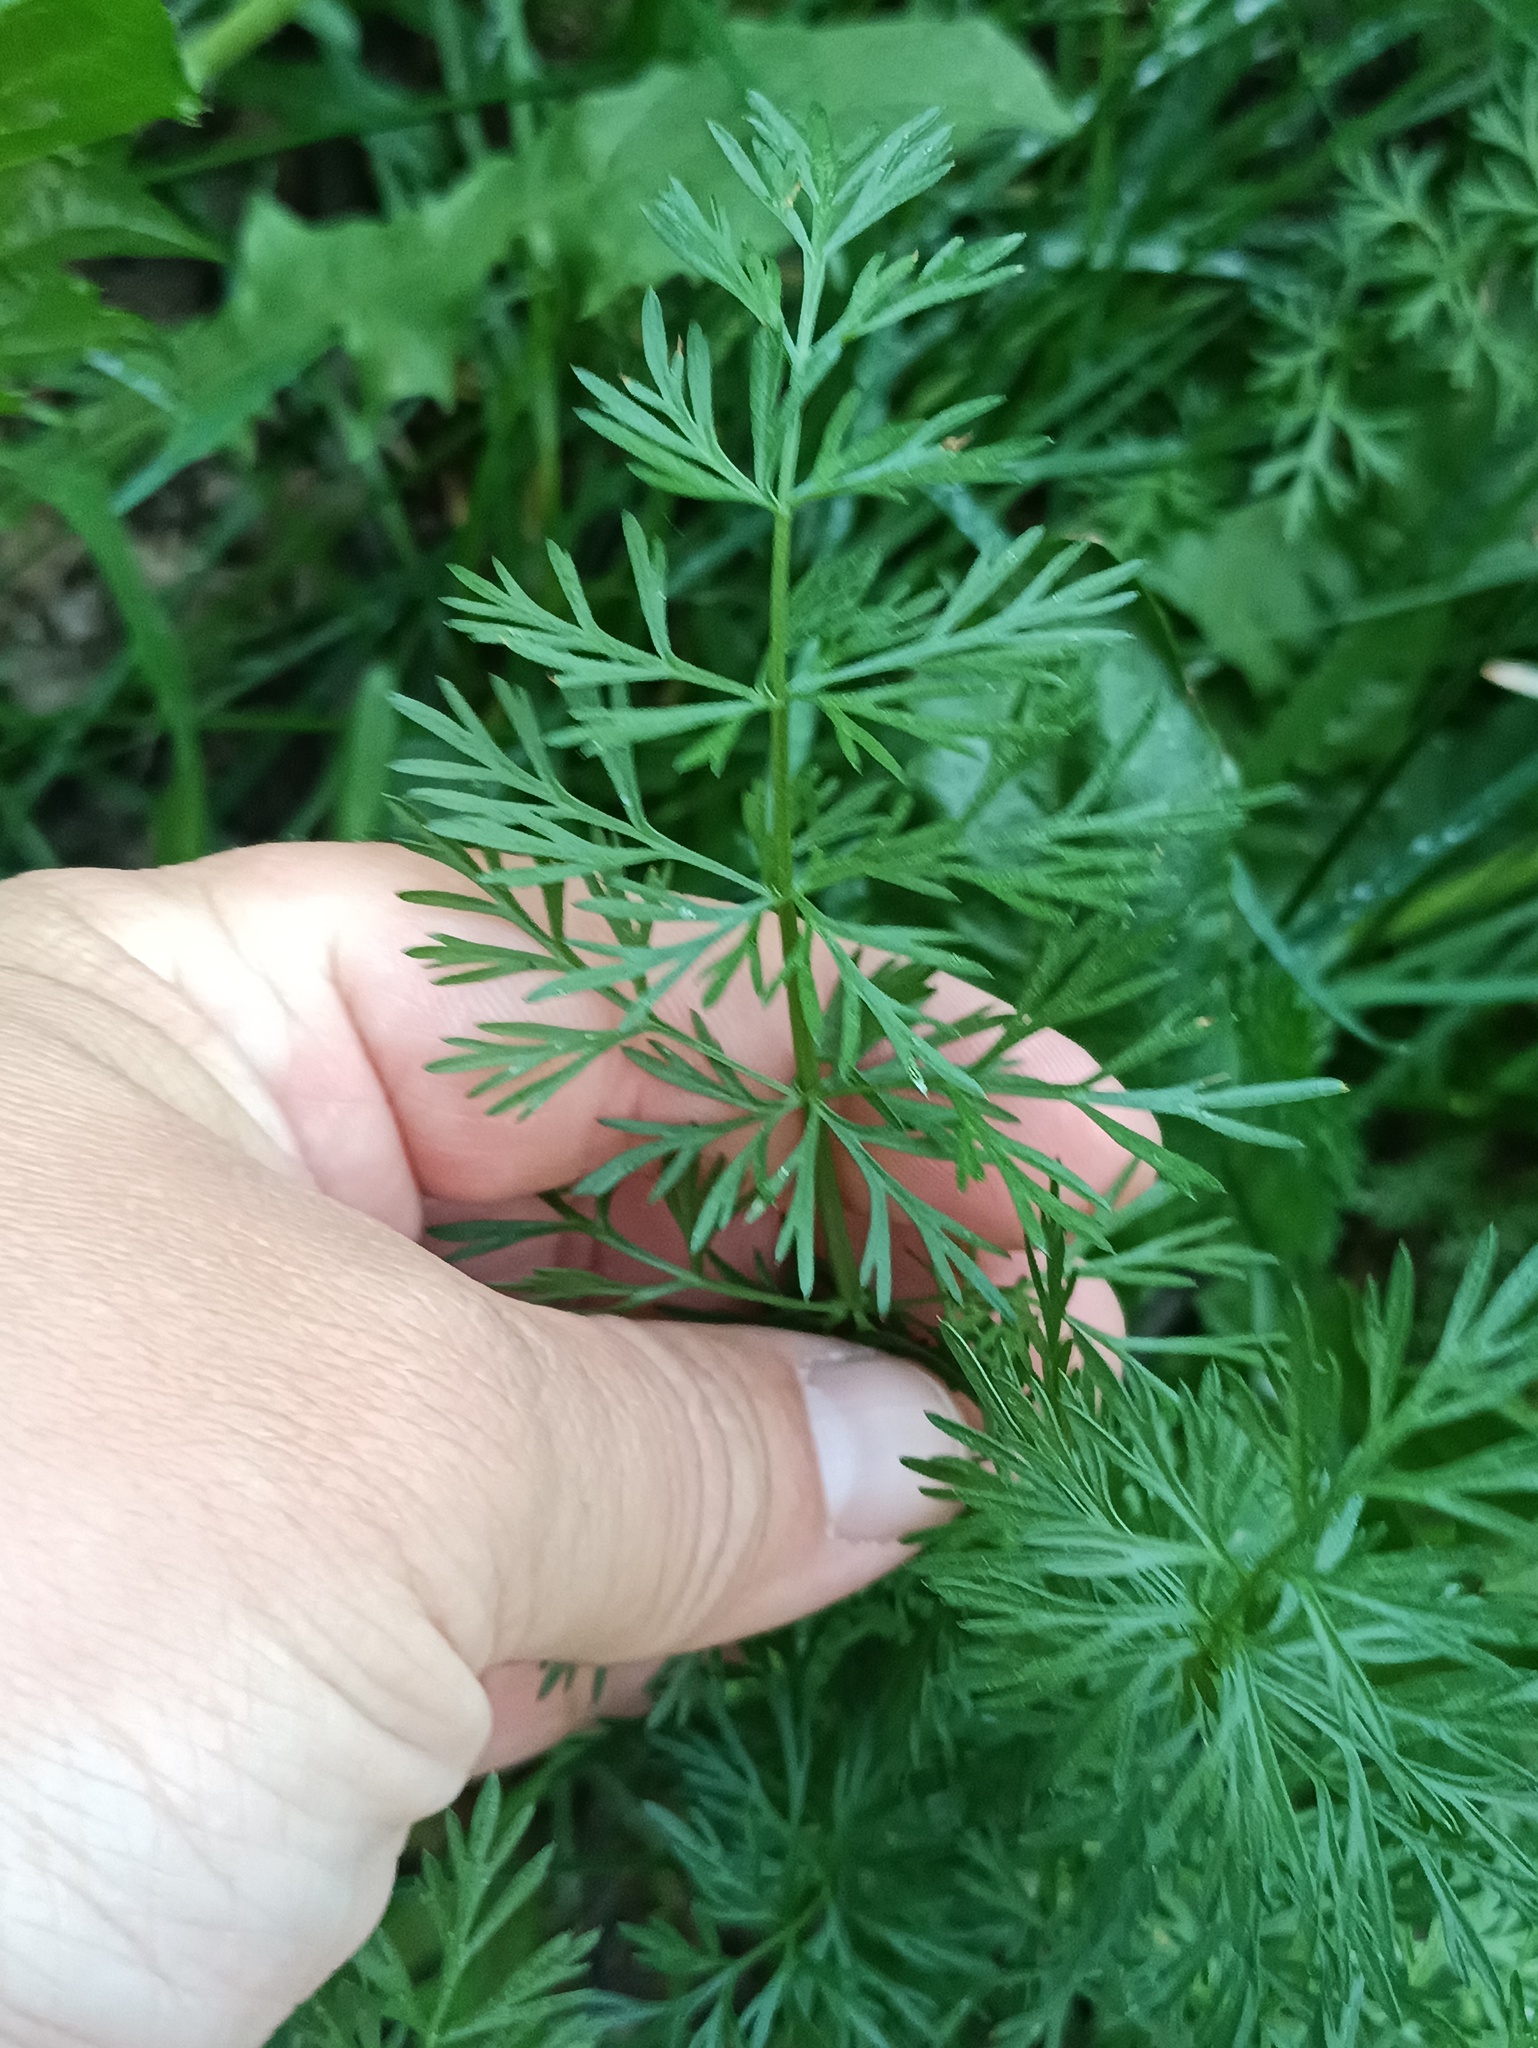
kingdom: Plantae
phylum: Tracheophyta
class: Magnoliopsida
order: Apiales
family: Apiaceae
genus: Carum
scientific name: Carum carvi
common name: Caraway
